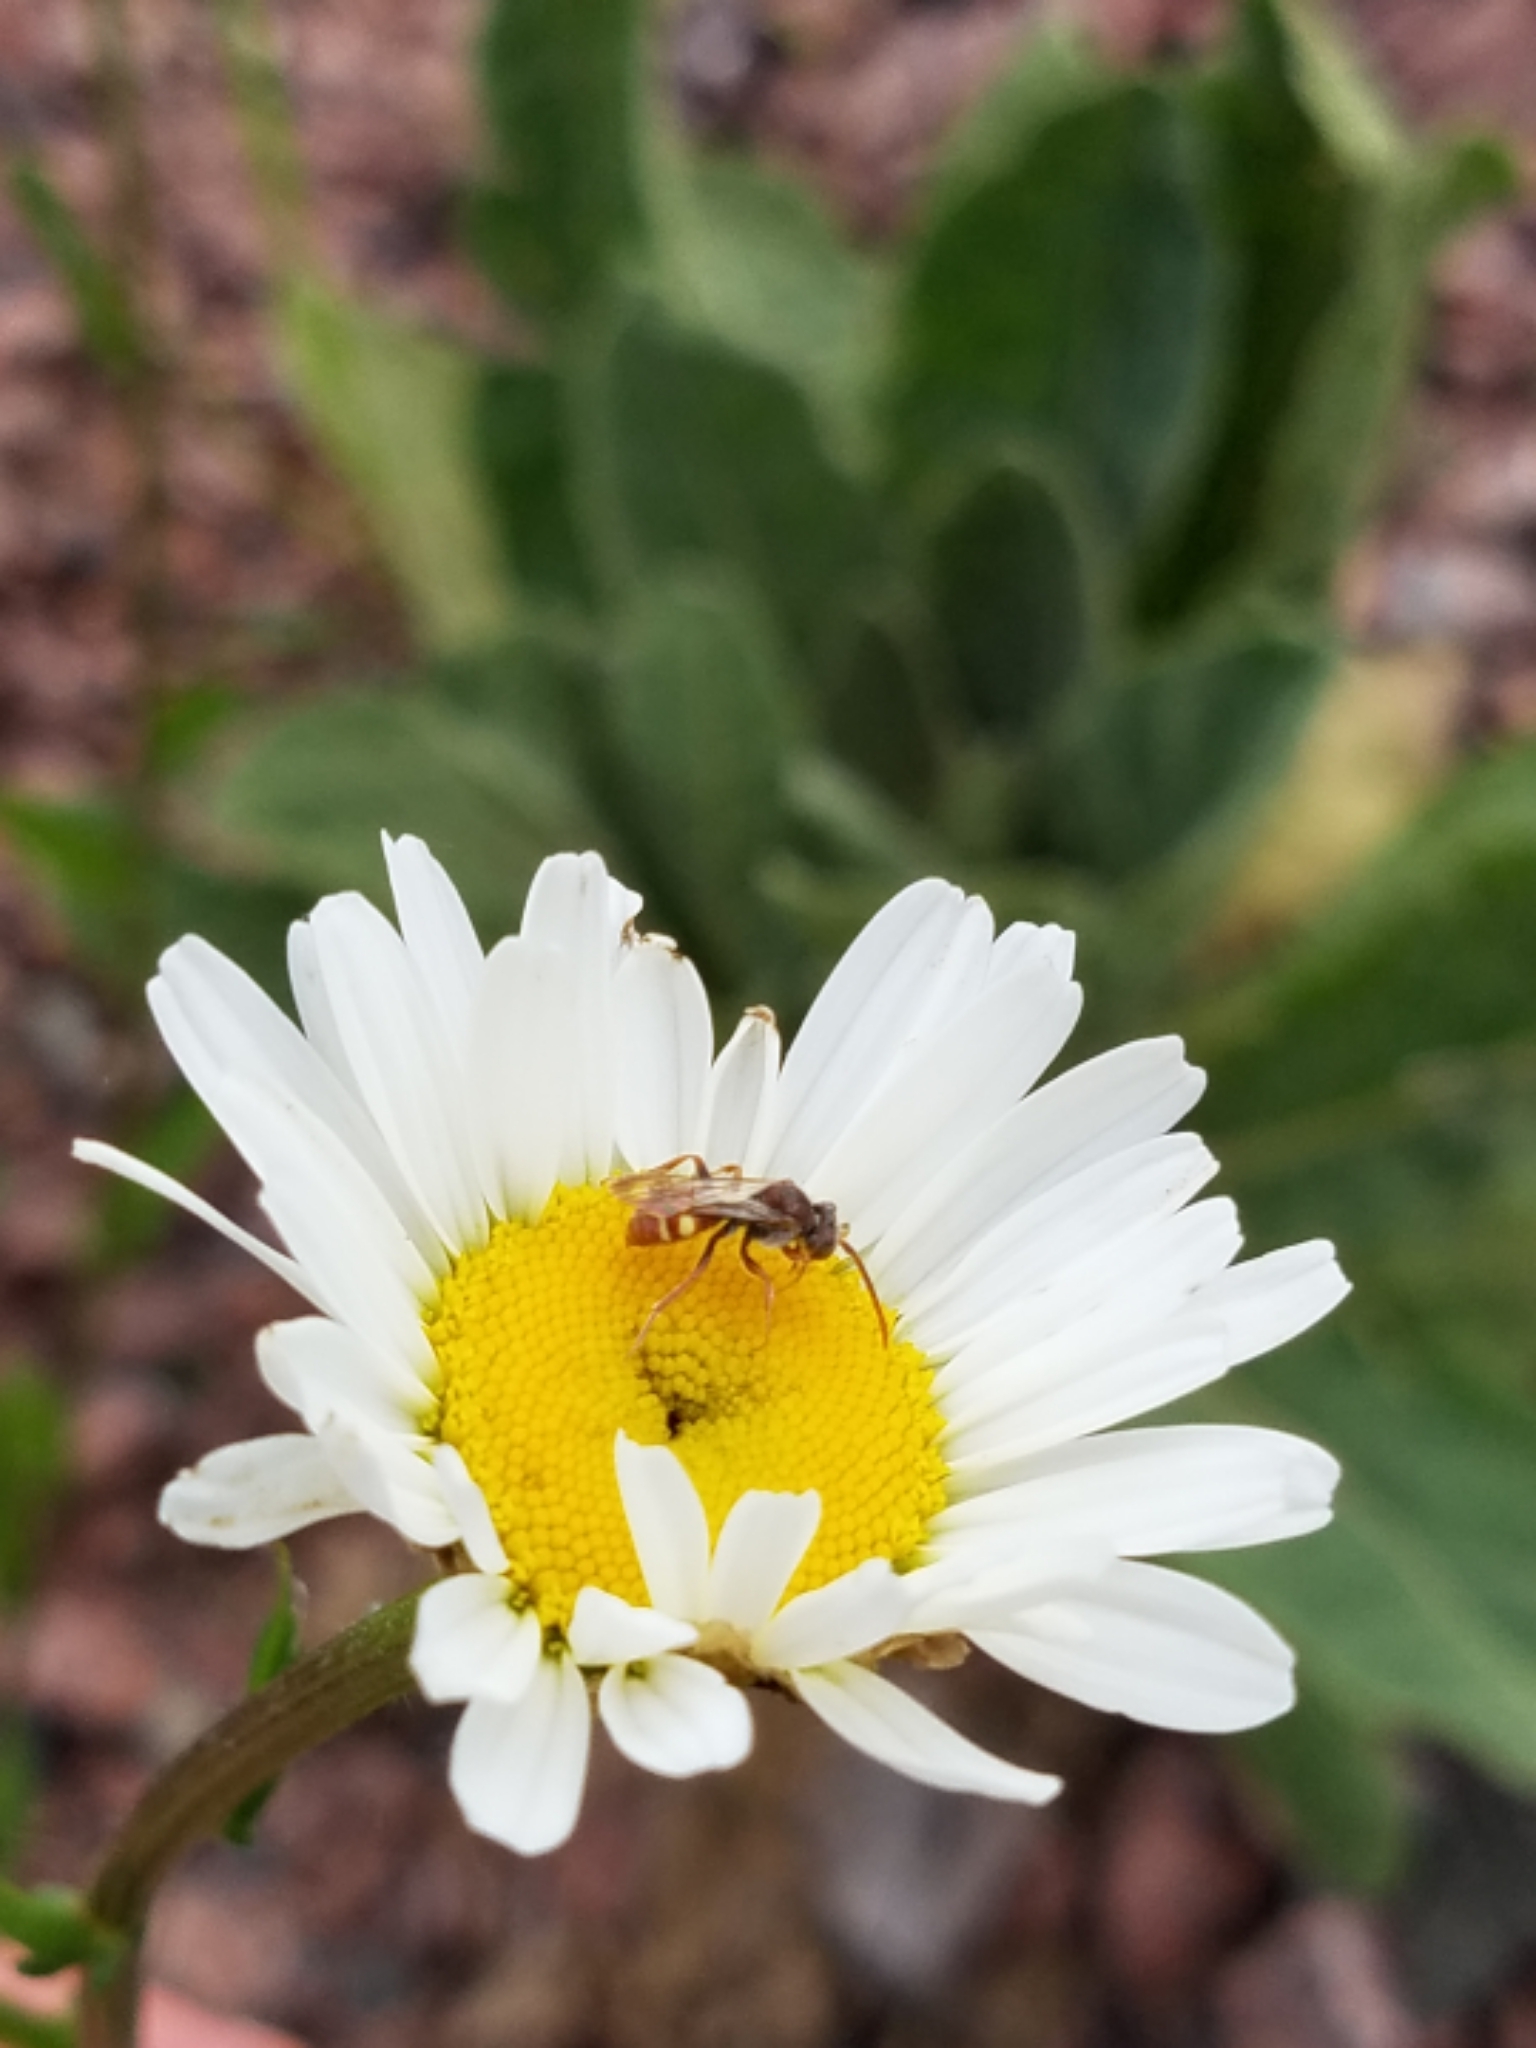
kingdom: Plantae
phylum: Tracheophyta
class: Magnoliopsida
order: Asterales
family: Asteraceae
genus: Leucanthemum
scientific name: Leucanthemum vulgare
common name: Oxeye daisy
